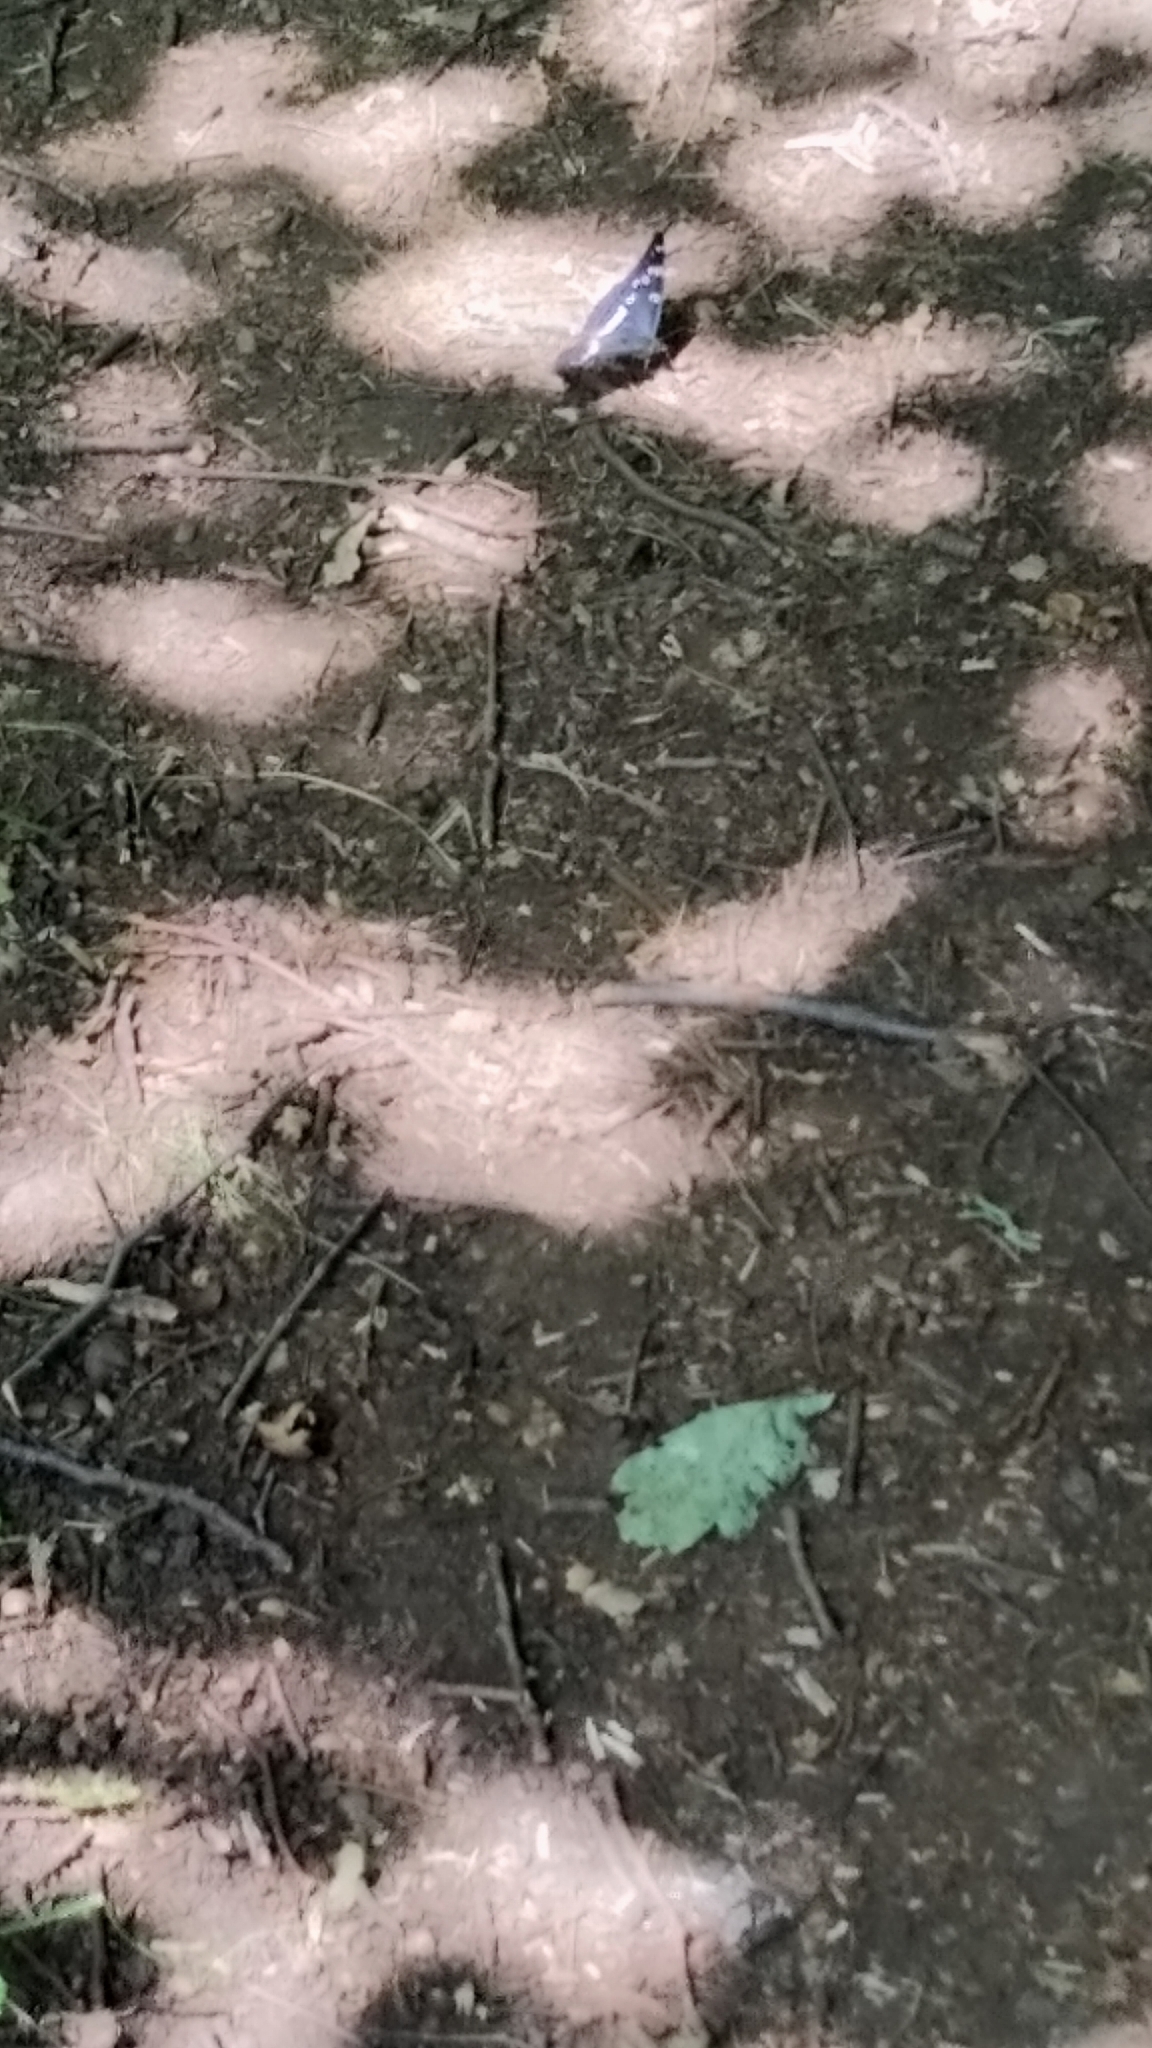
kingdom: Animalia
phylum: Arthropoda
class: Insecta
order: Lepidoptera
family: Nymphalidae
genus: Limenitis
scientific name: Limenitis populi
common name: Poplar admiral
